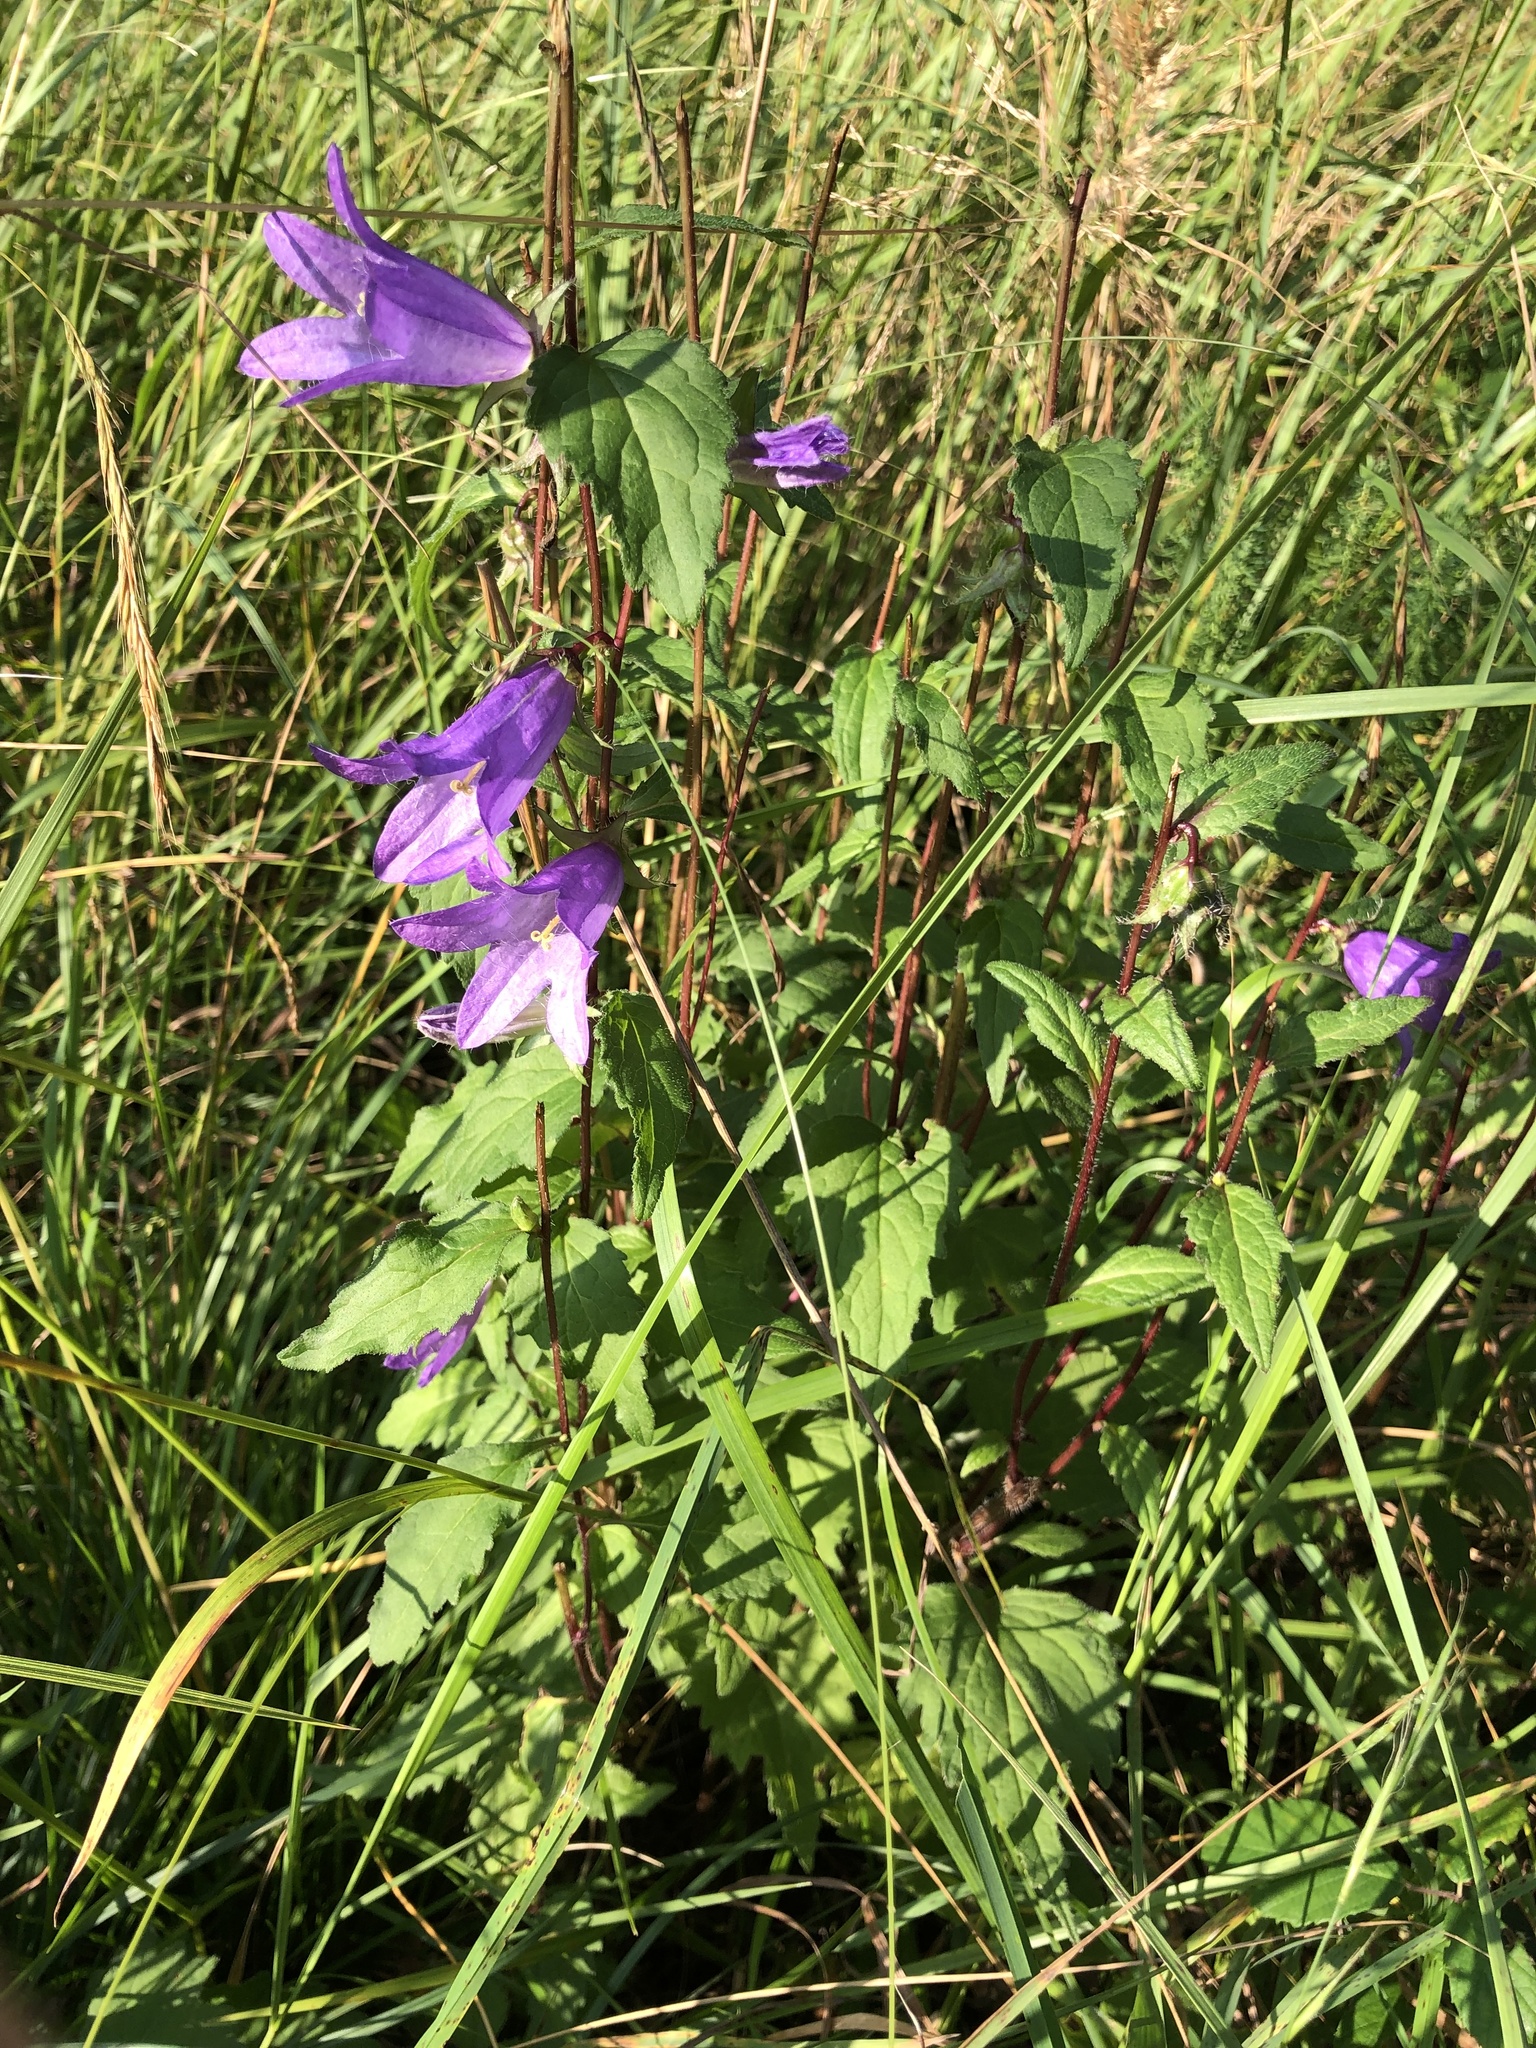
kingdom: Plantae
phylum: Tracheophyta
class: Magnoliopsida
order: Asterales
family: Campanulaceae
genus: Campanula
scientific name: Campanula trachelium
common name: Nettle-leaved bellflower
